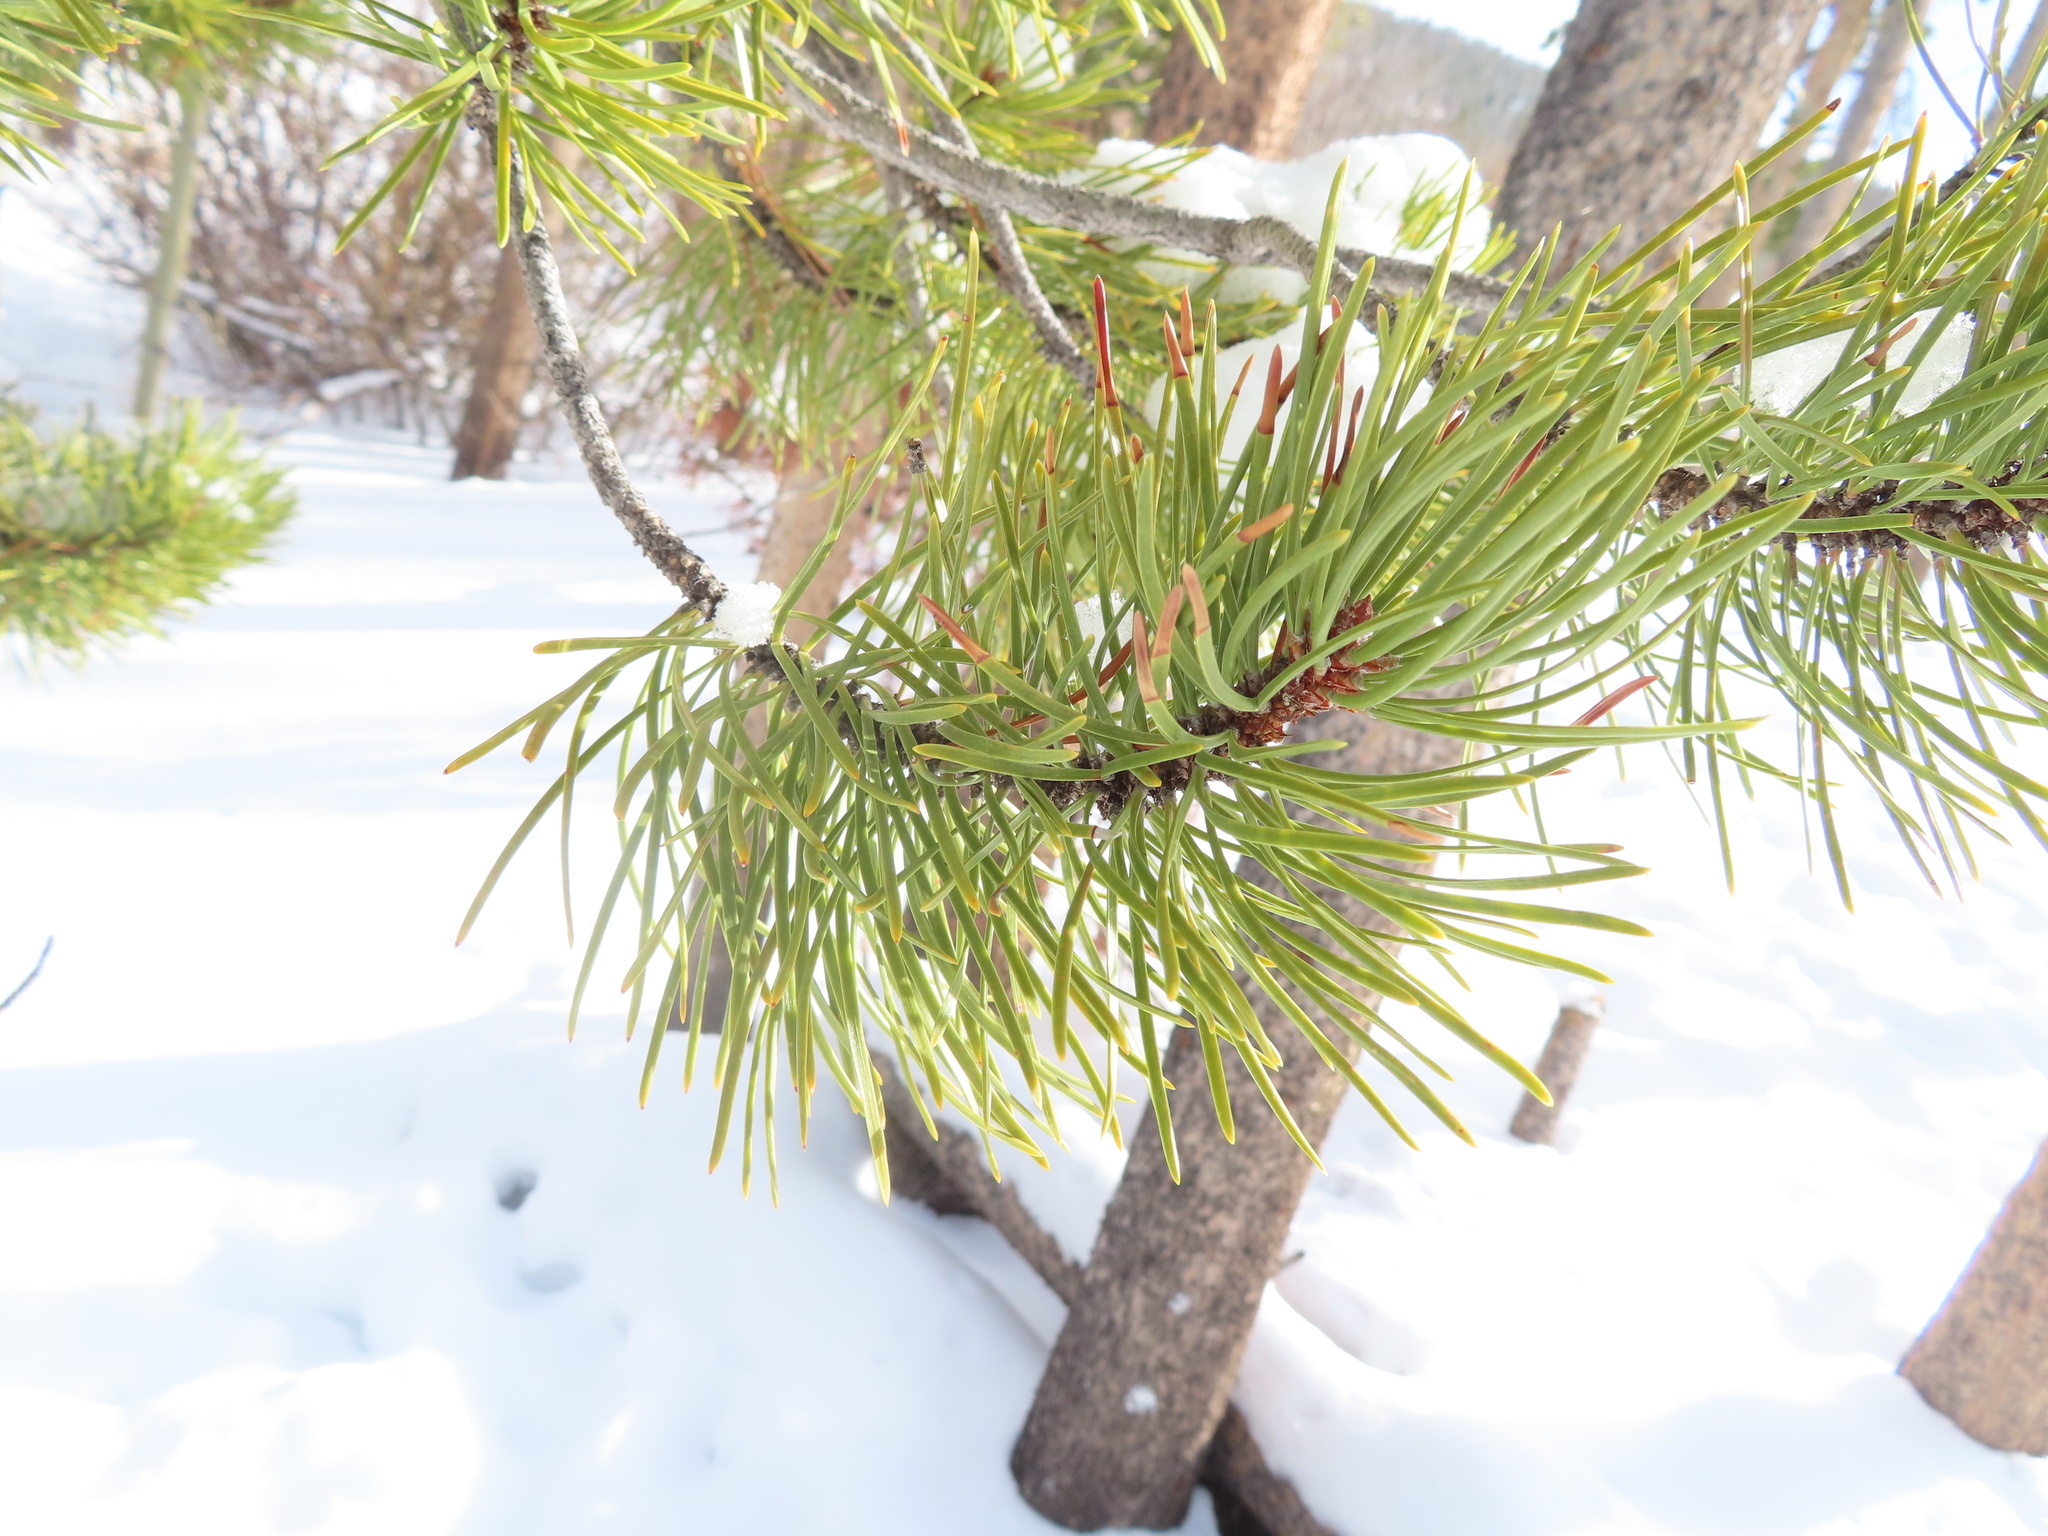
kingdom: Plantae
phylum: Tracheophyta
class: Pinopsida
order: Pinales
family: Pinaceae
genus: Pinus
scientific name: Pinus contorta
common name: Lodgepole pine
